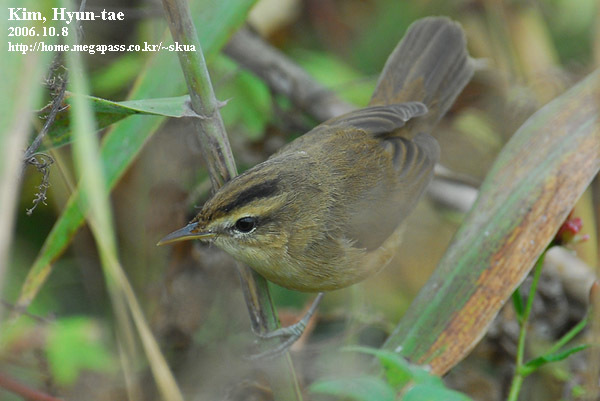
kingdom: Animalia
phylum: Chordata
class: Aves
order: Passeriformes
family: Acrocephalidae
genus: Acrocephalus
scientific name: Acrocephalus bistrigiceps
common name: Black-browed reed warbler
